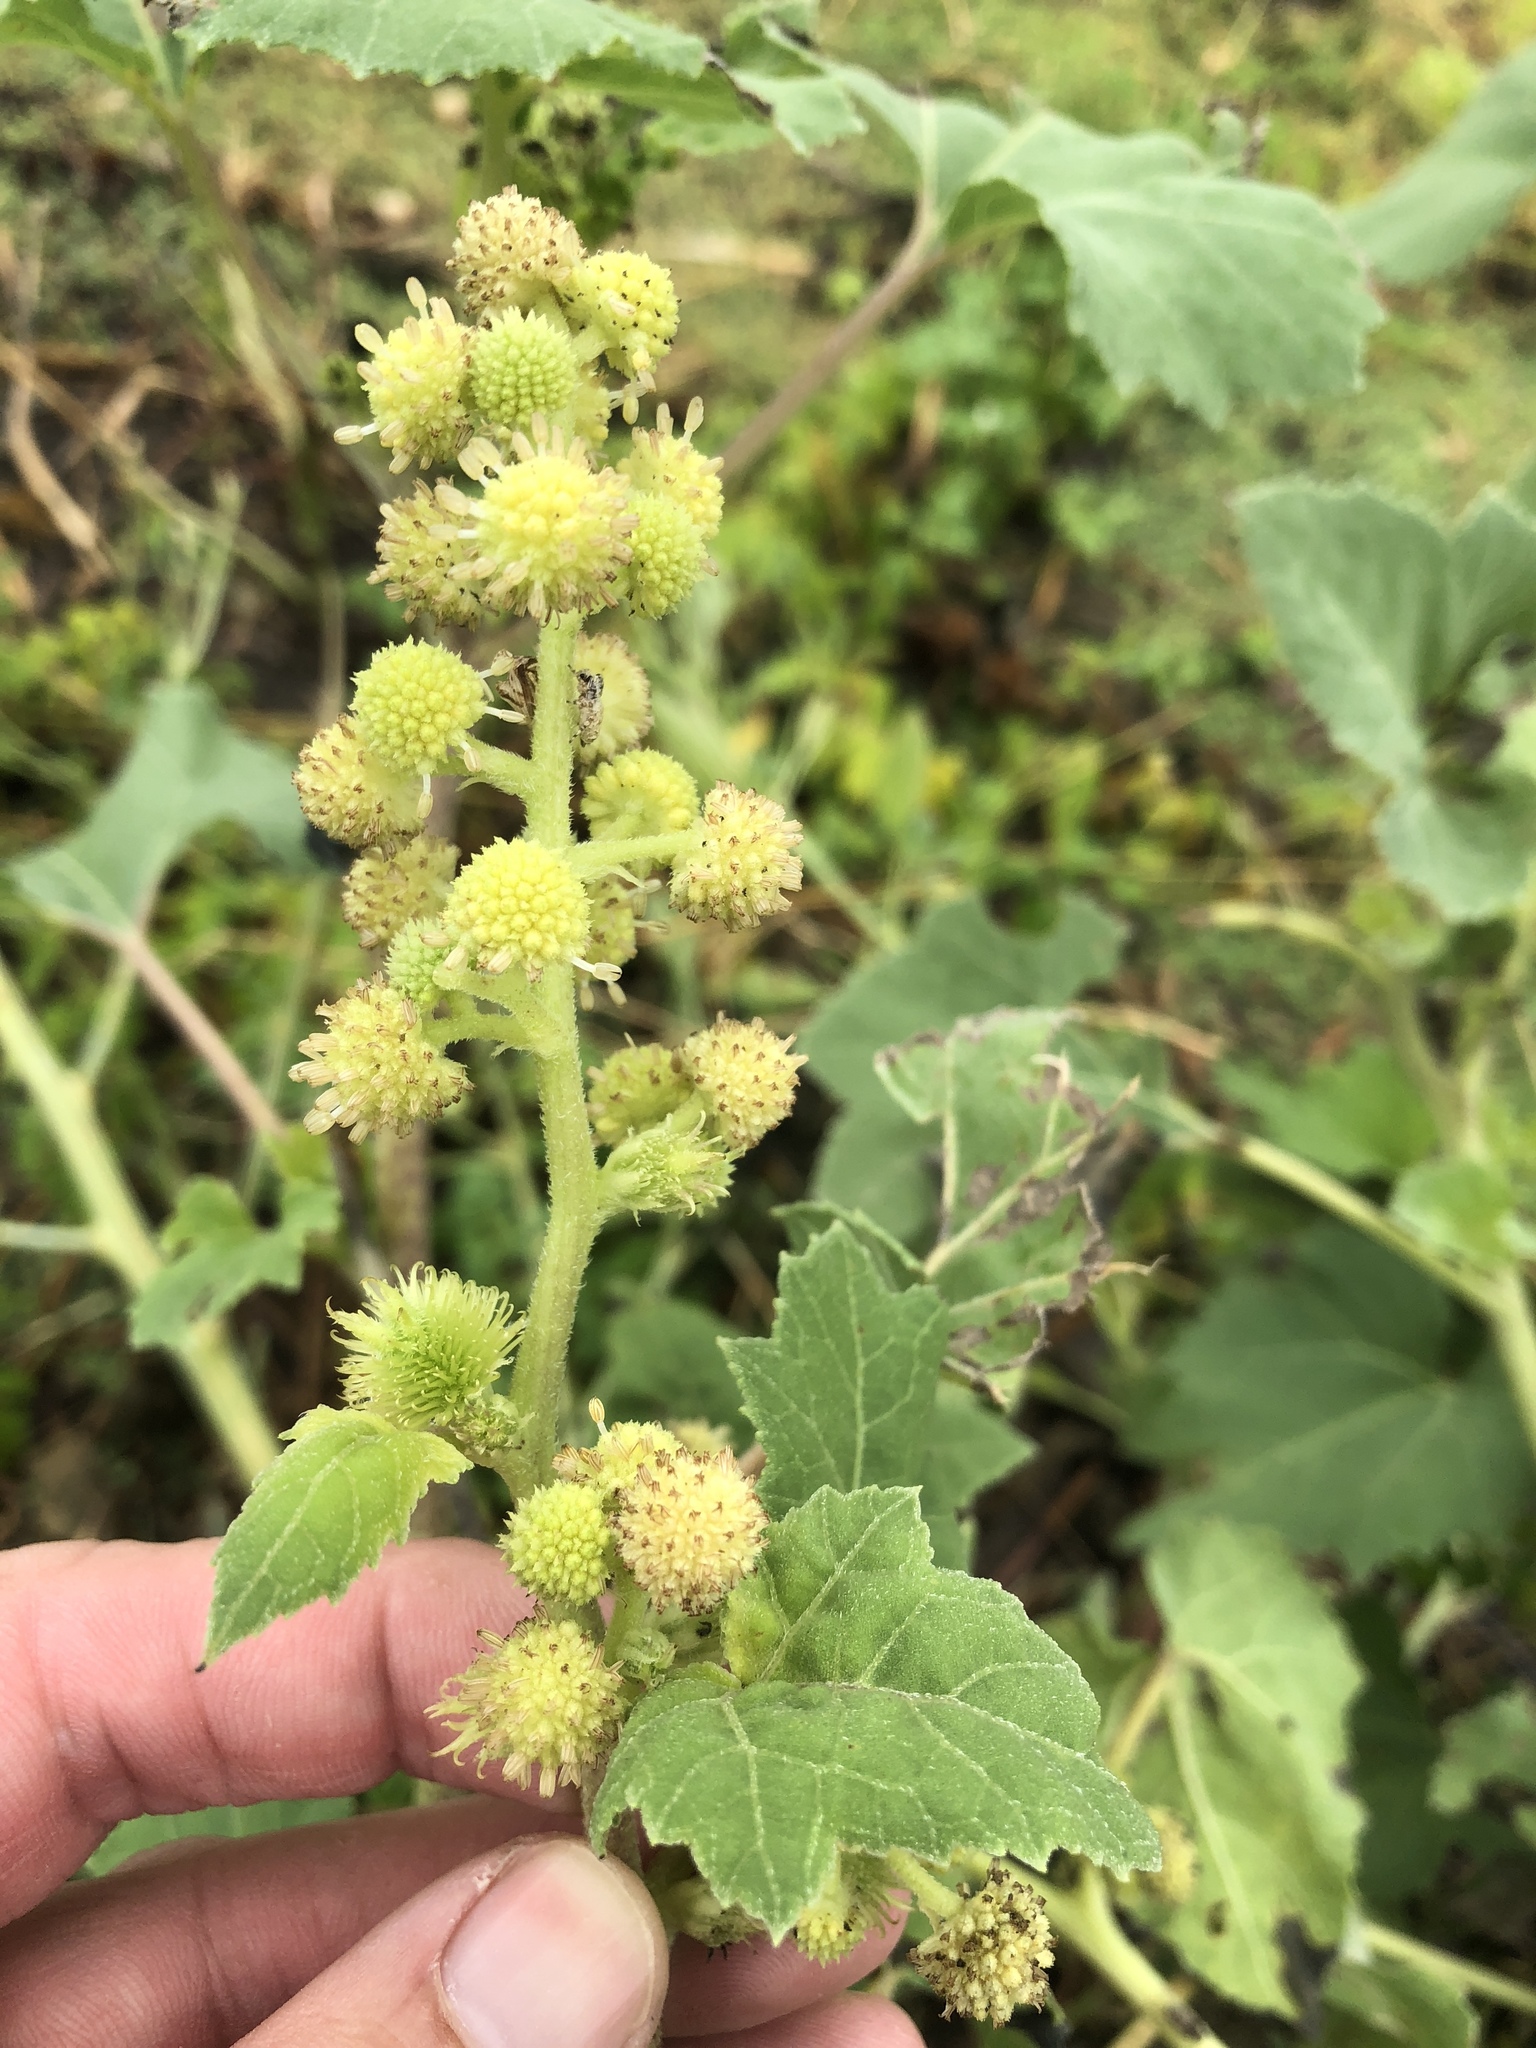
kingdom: Plantae
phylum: Tracheophyta
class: Magnoliopsida
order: Asterales
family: Asteraceae
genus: Xanthium
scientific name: Xanthium strumarium
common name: Rough cocklebur
